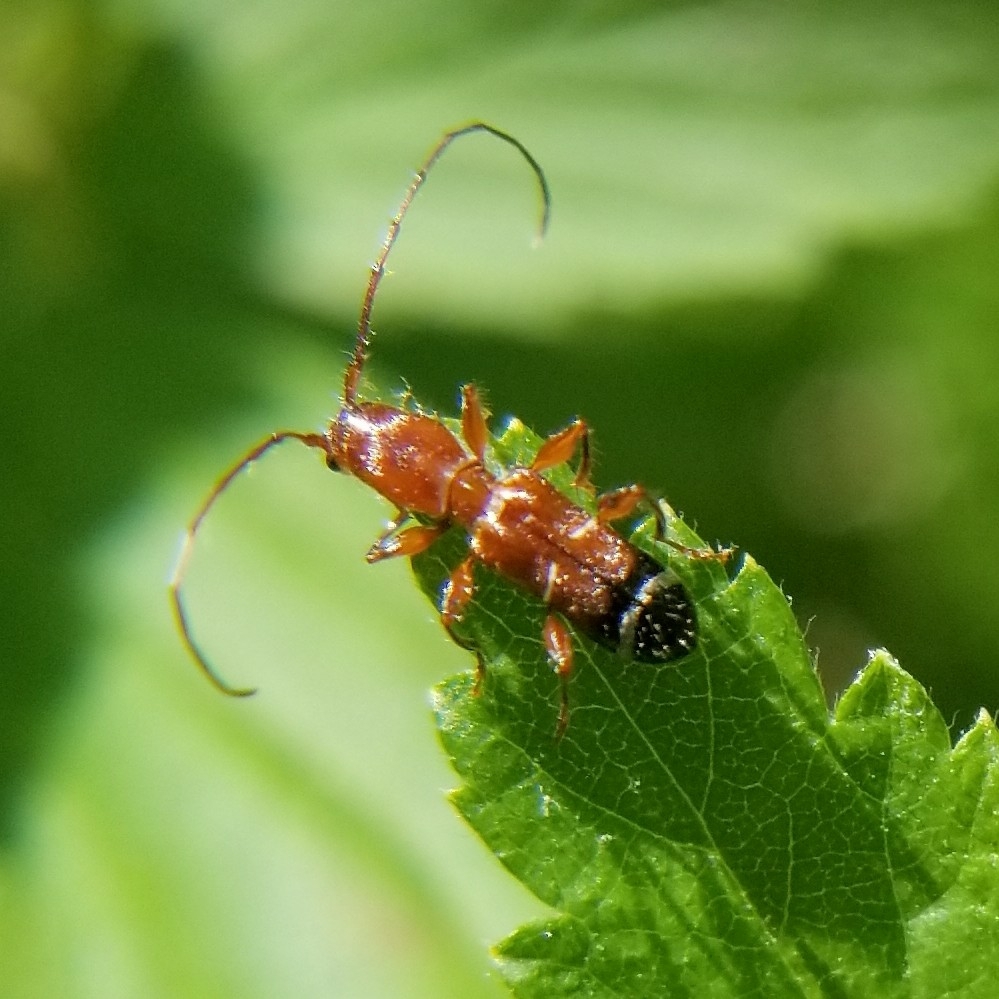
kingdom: Animalia
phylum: Arthropoda
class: Insecta
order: Coleoptera
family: Cerambycidae
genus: Euderces
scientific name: Euderces pini
